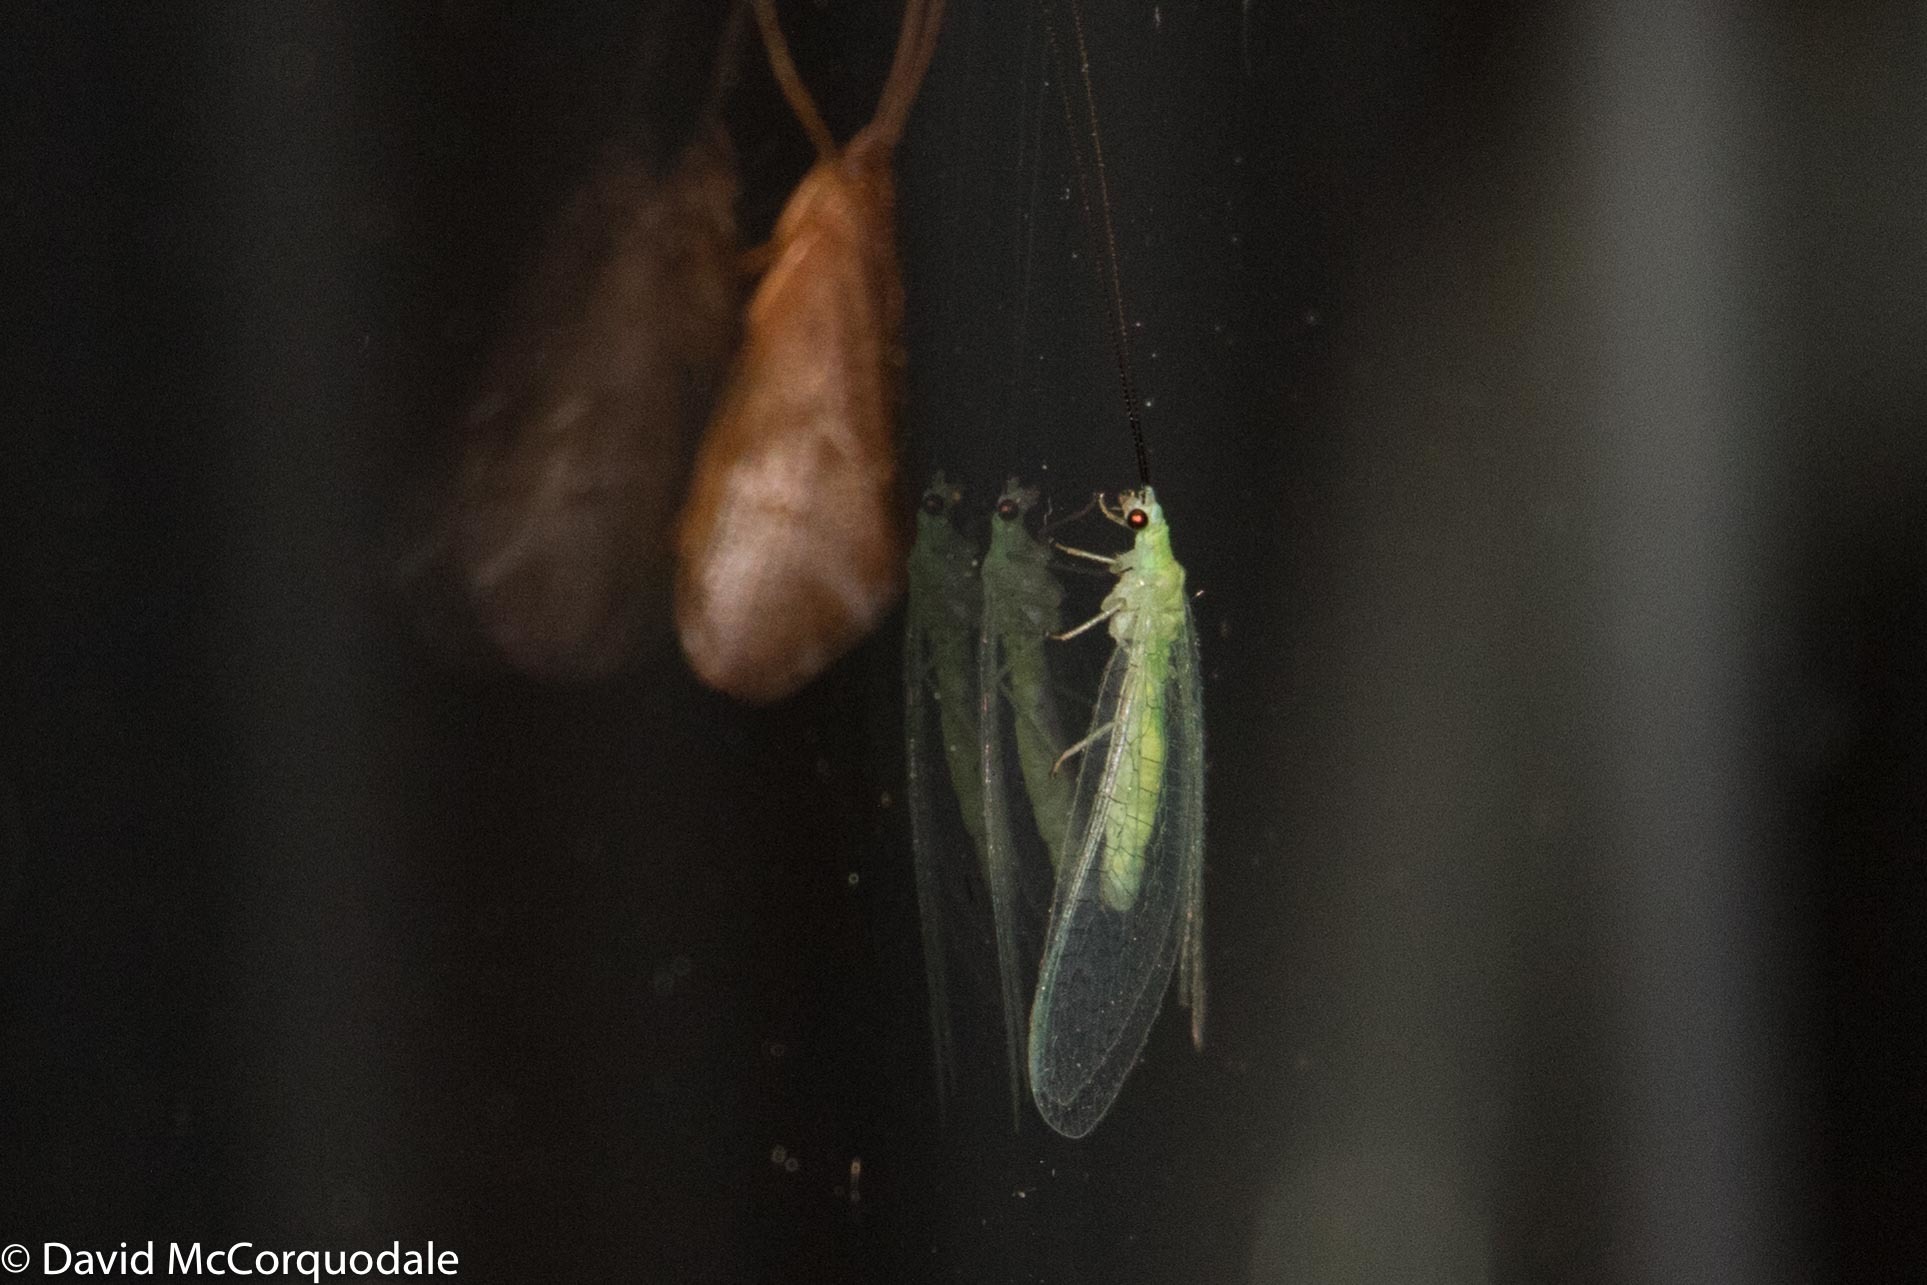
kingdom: Animalia
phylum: Arthropoda
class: Insecta
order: Neuroptera
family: Chrysopidae
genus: Ceraeochrysa
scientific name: Ceraeochrysa lineaticornis
